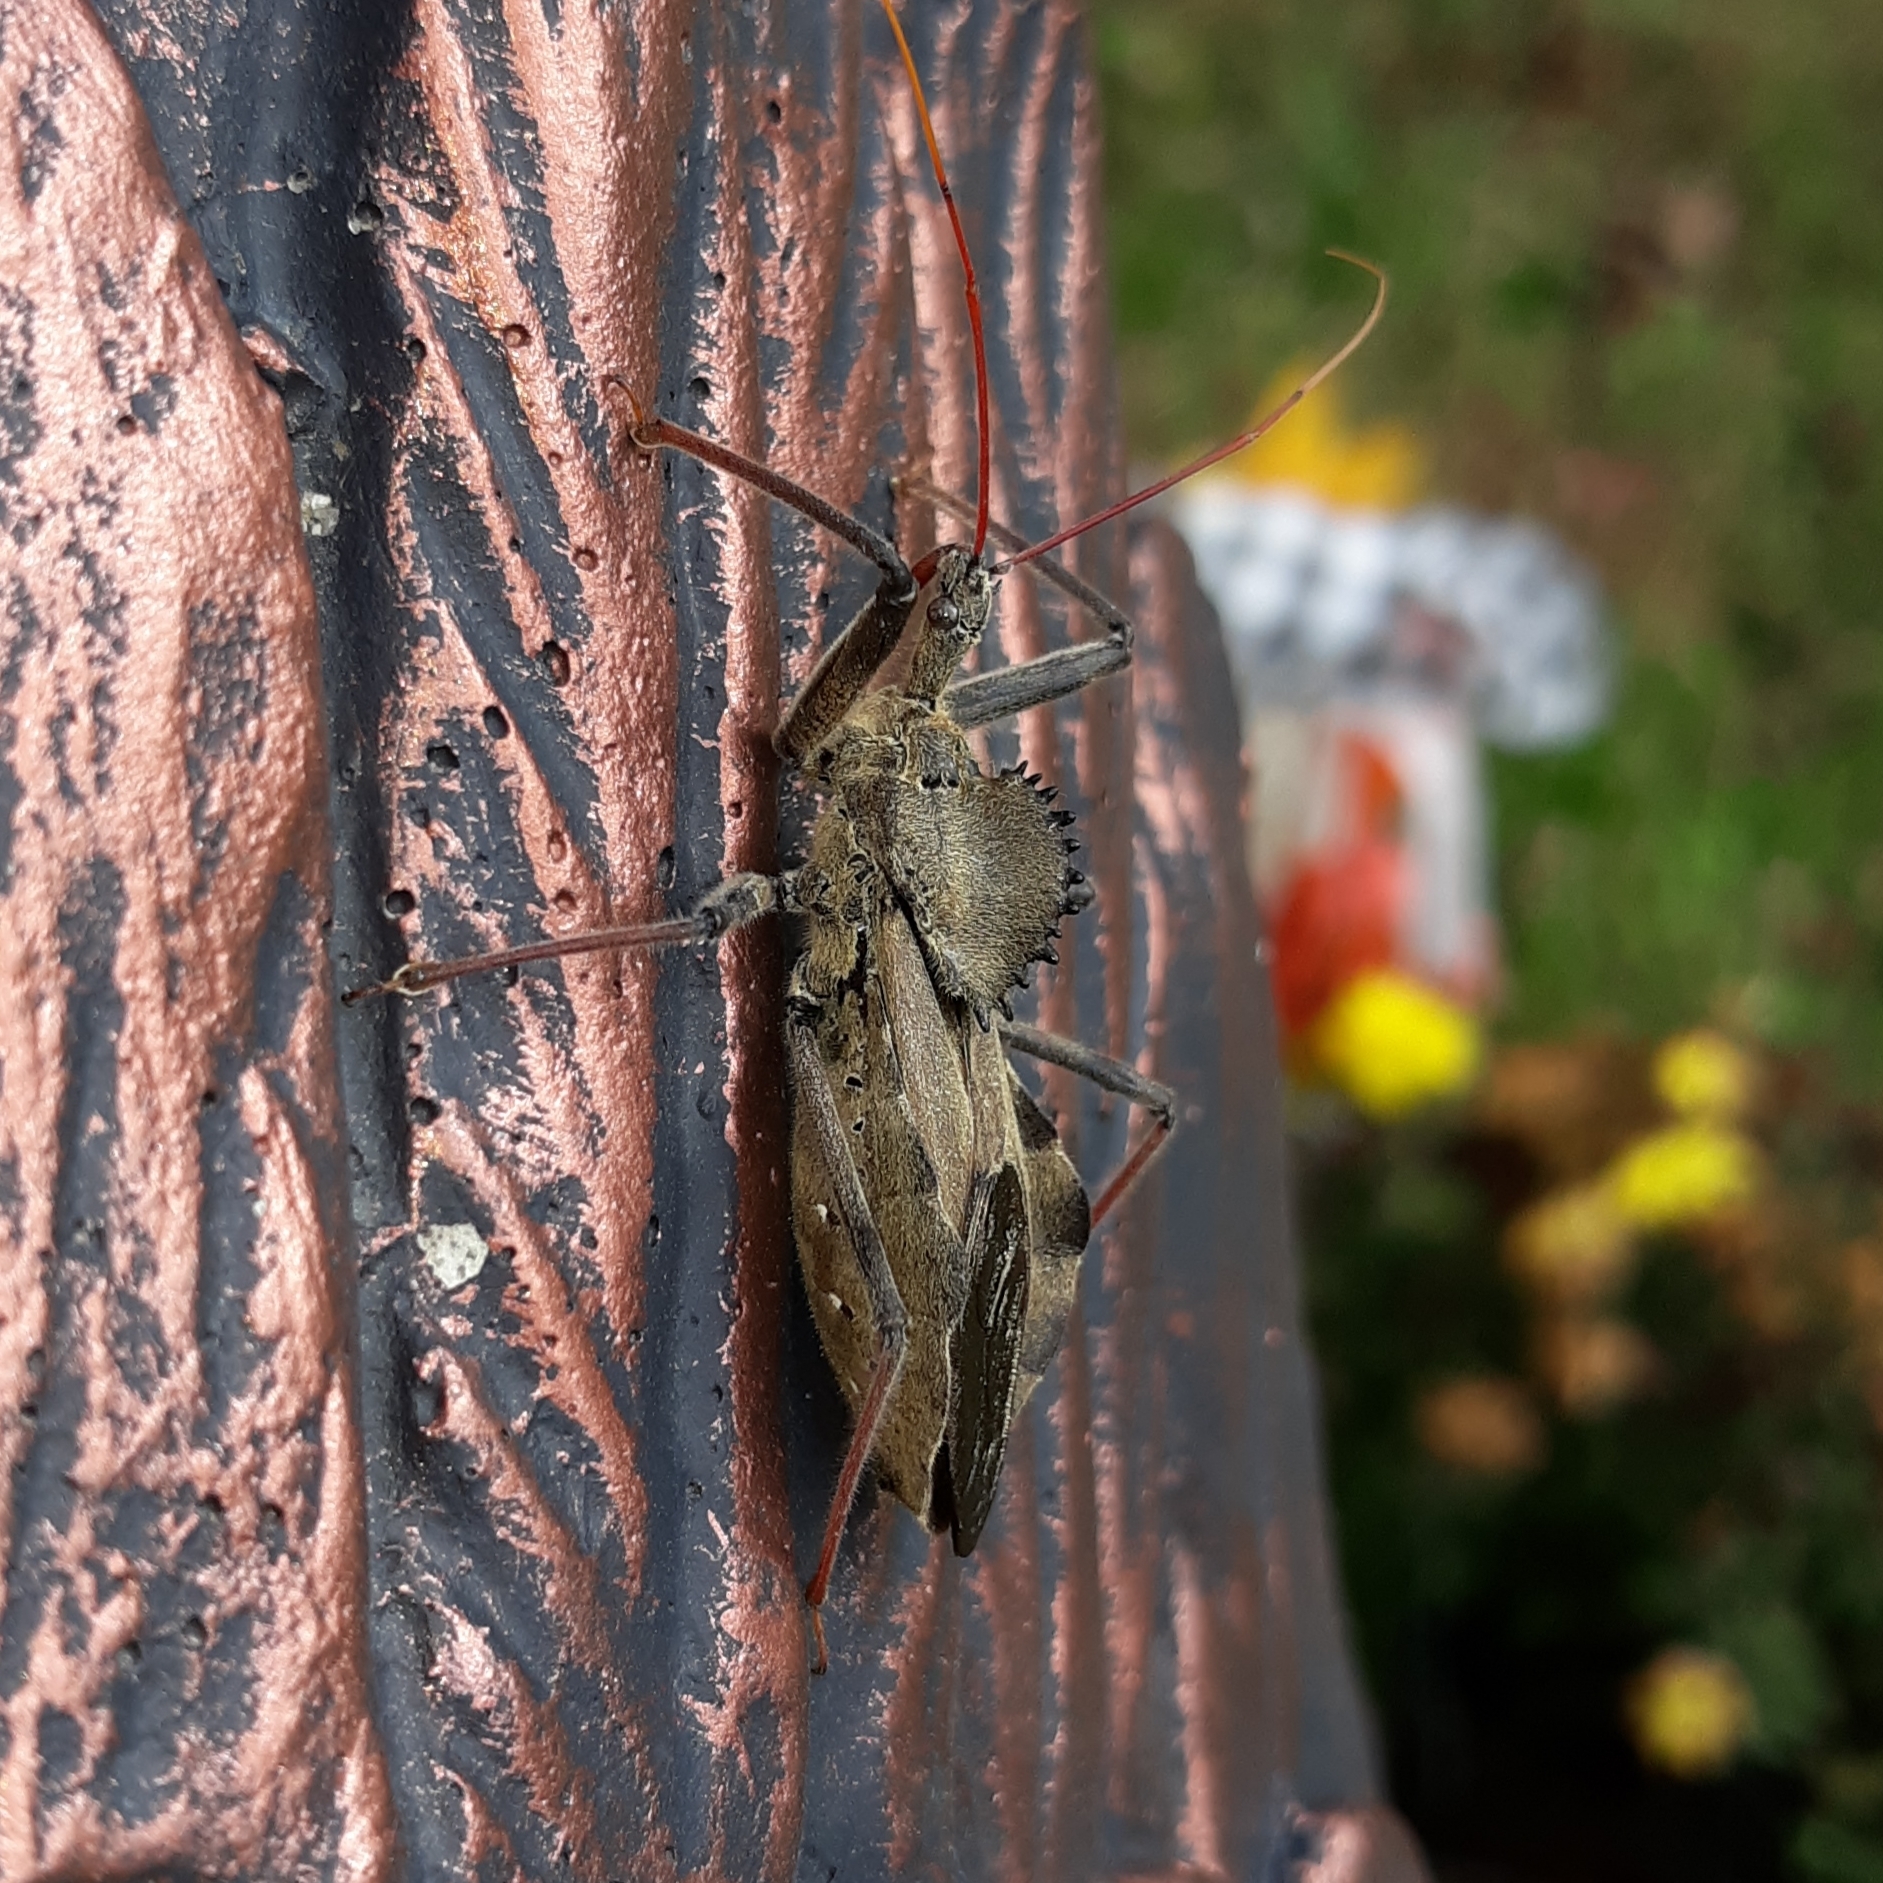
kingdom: Animalia
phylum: Arthropoda
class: Insecta
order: Hemiptera
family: Reduviidae
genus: Arilus
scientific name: Arilus cristatus
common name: North american wheel bug
